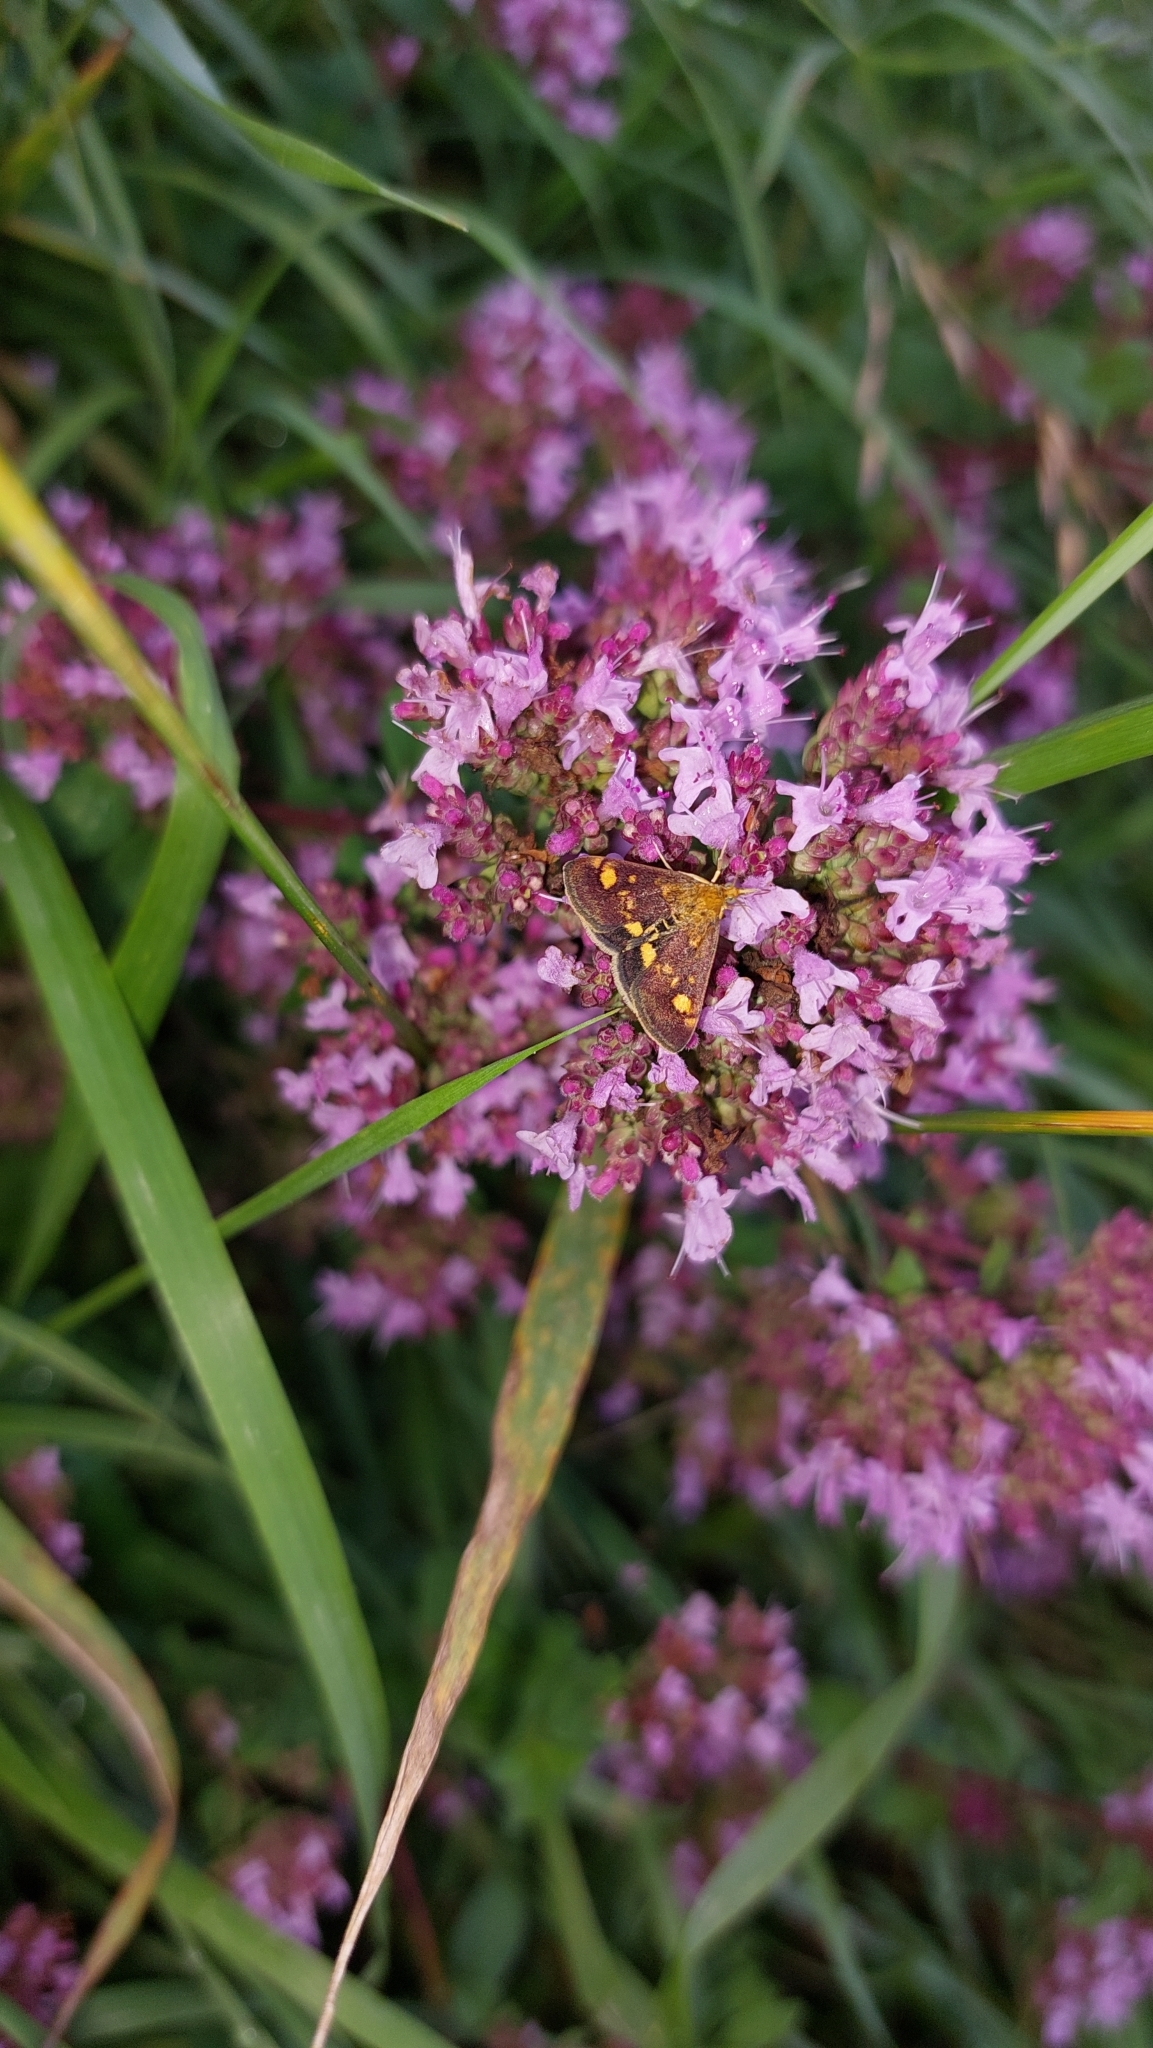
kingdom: Animalia
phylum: Arthropoda
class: Insecta
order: Lepidoptera
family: Crambidae
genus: Pyrausta
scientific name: Pyrausta aurata
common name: Small purple & gold
